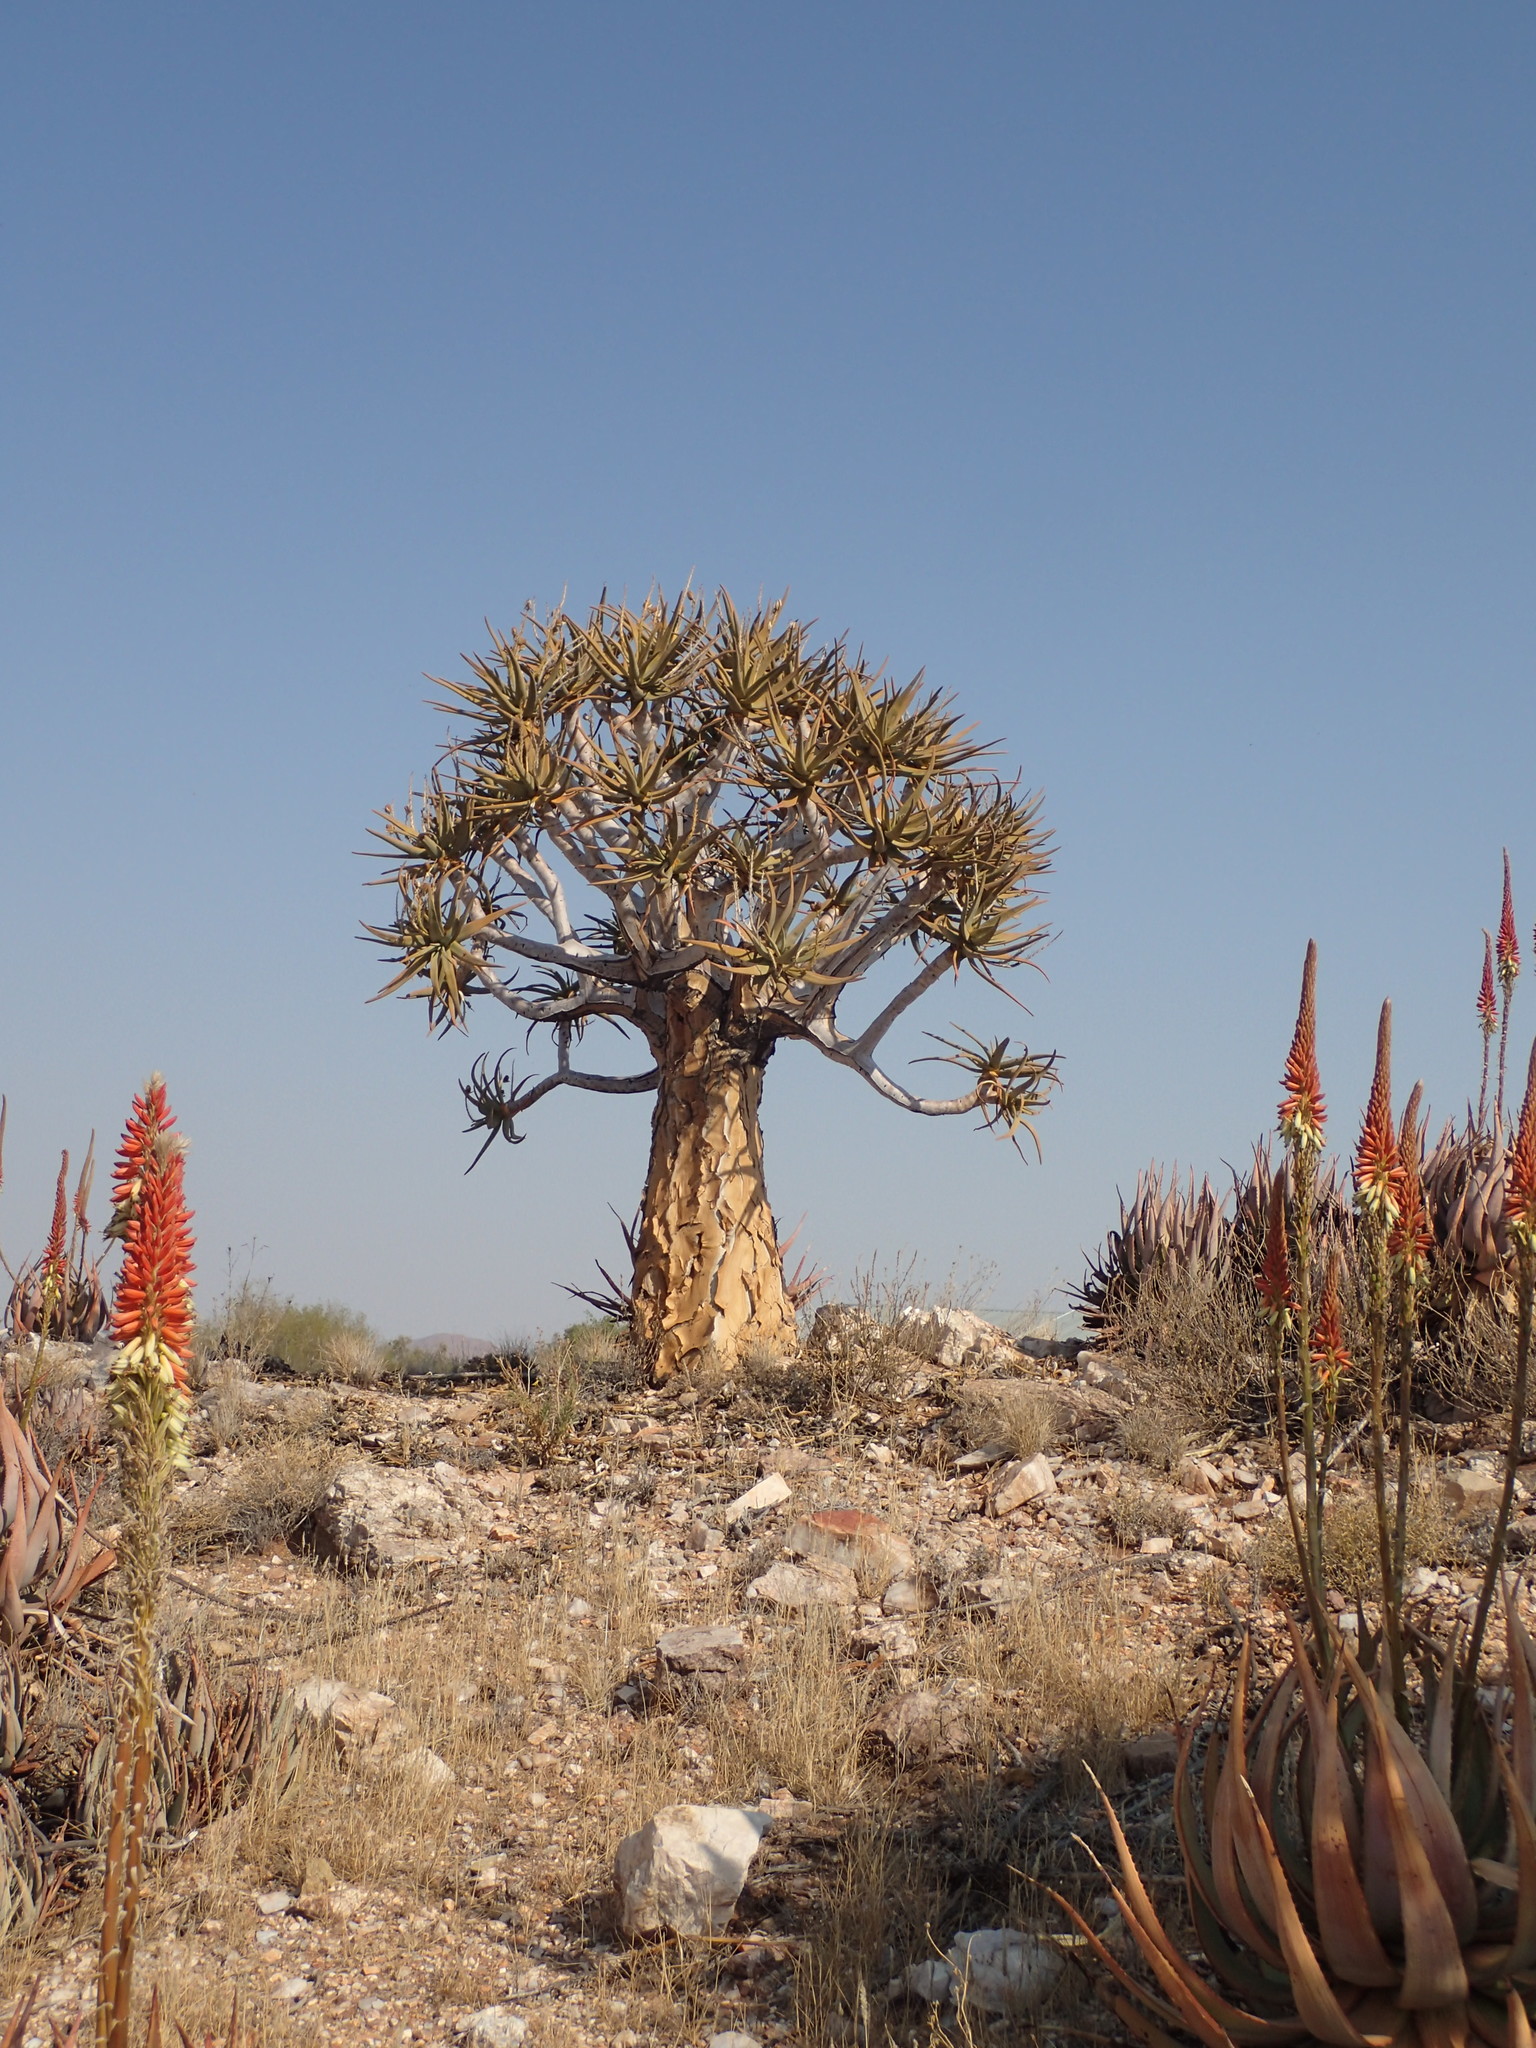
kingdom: Plantae
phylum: Tracheophyta
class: Liliopsida
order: Asparagales
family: Asphodelaceae
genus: Aloidendron
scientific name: Aloidendron dichotomum
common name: Quiver tree
